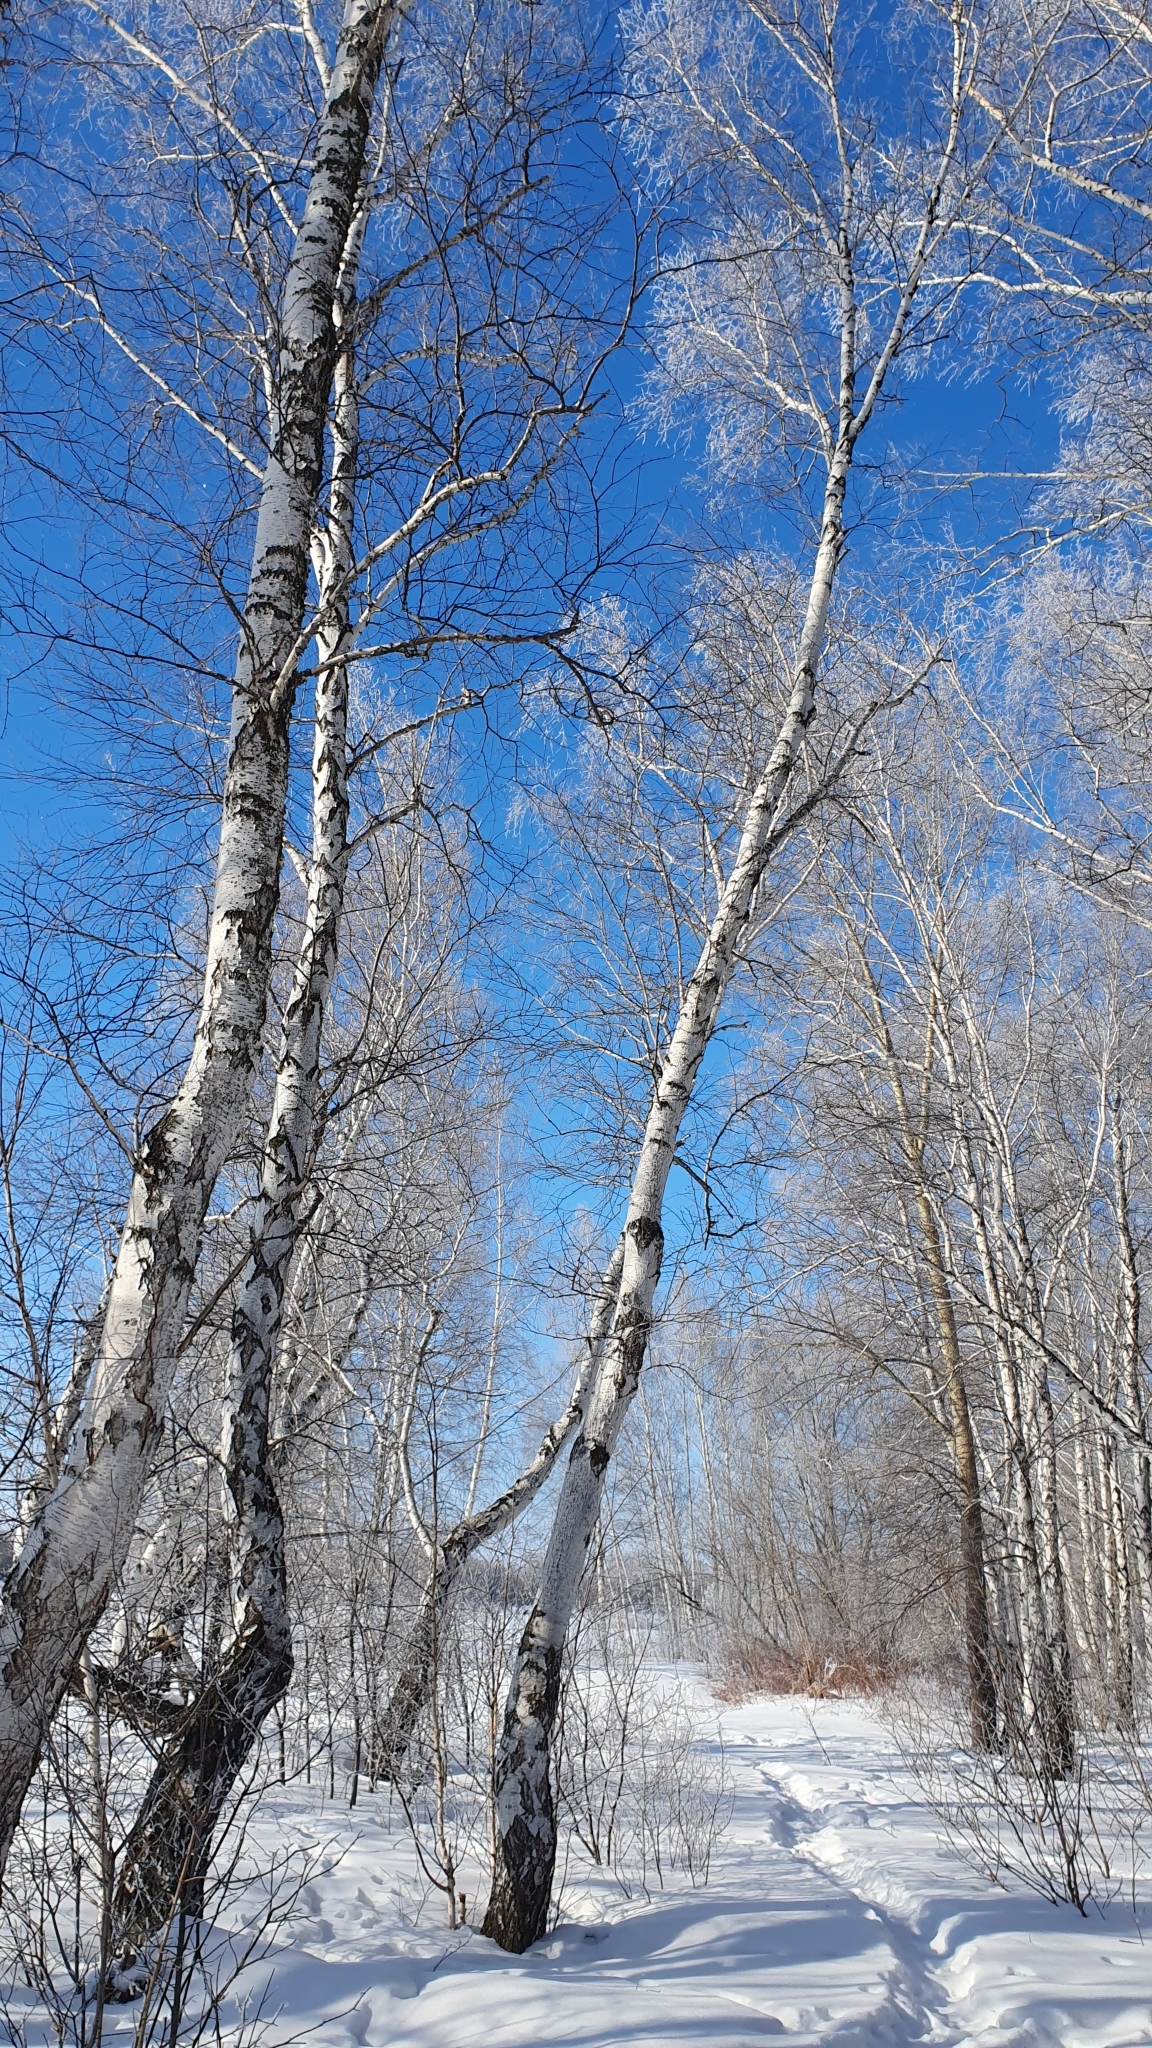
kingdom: Plantae
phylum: Tracheophyta
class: Magnoliopsida
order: Fagales
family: Betulaceae
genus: Betula
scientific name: Betula pendula
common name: Silver birch
